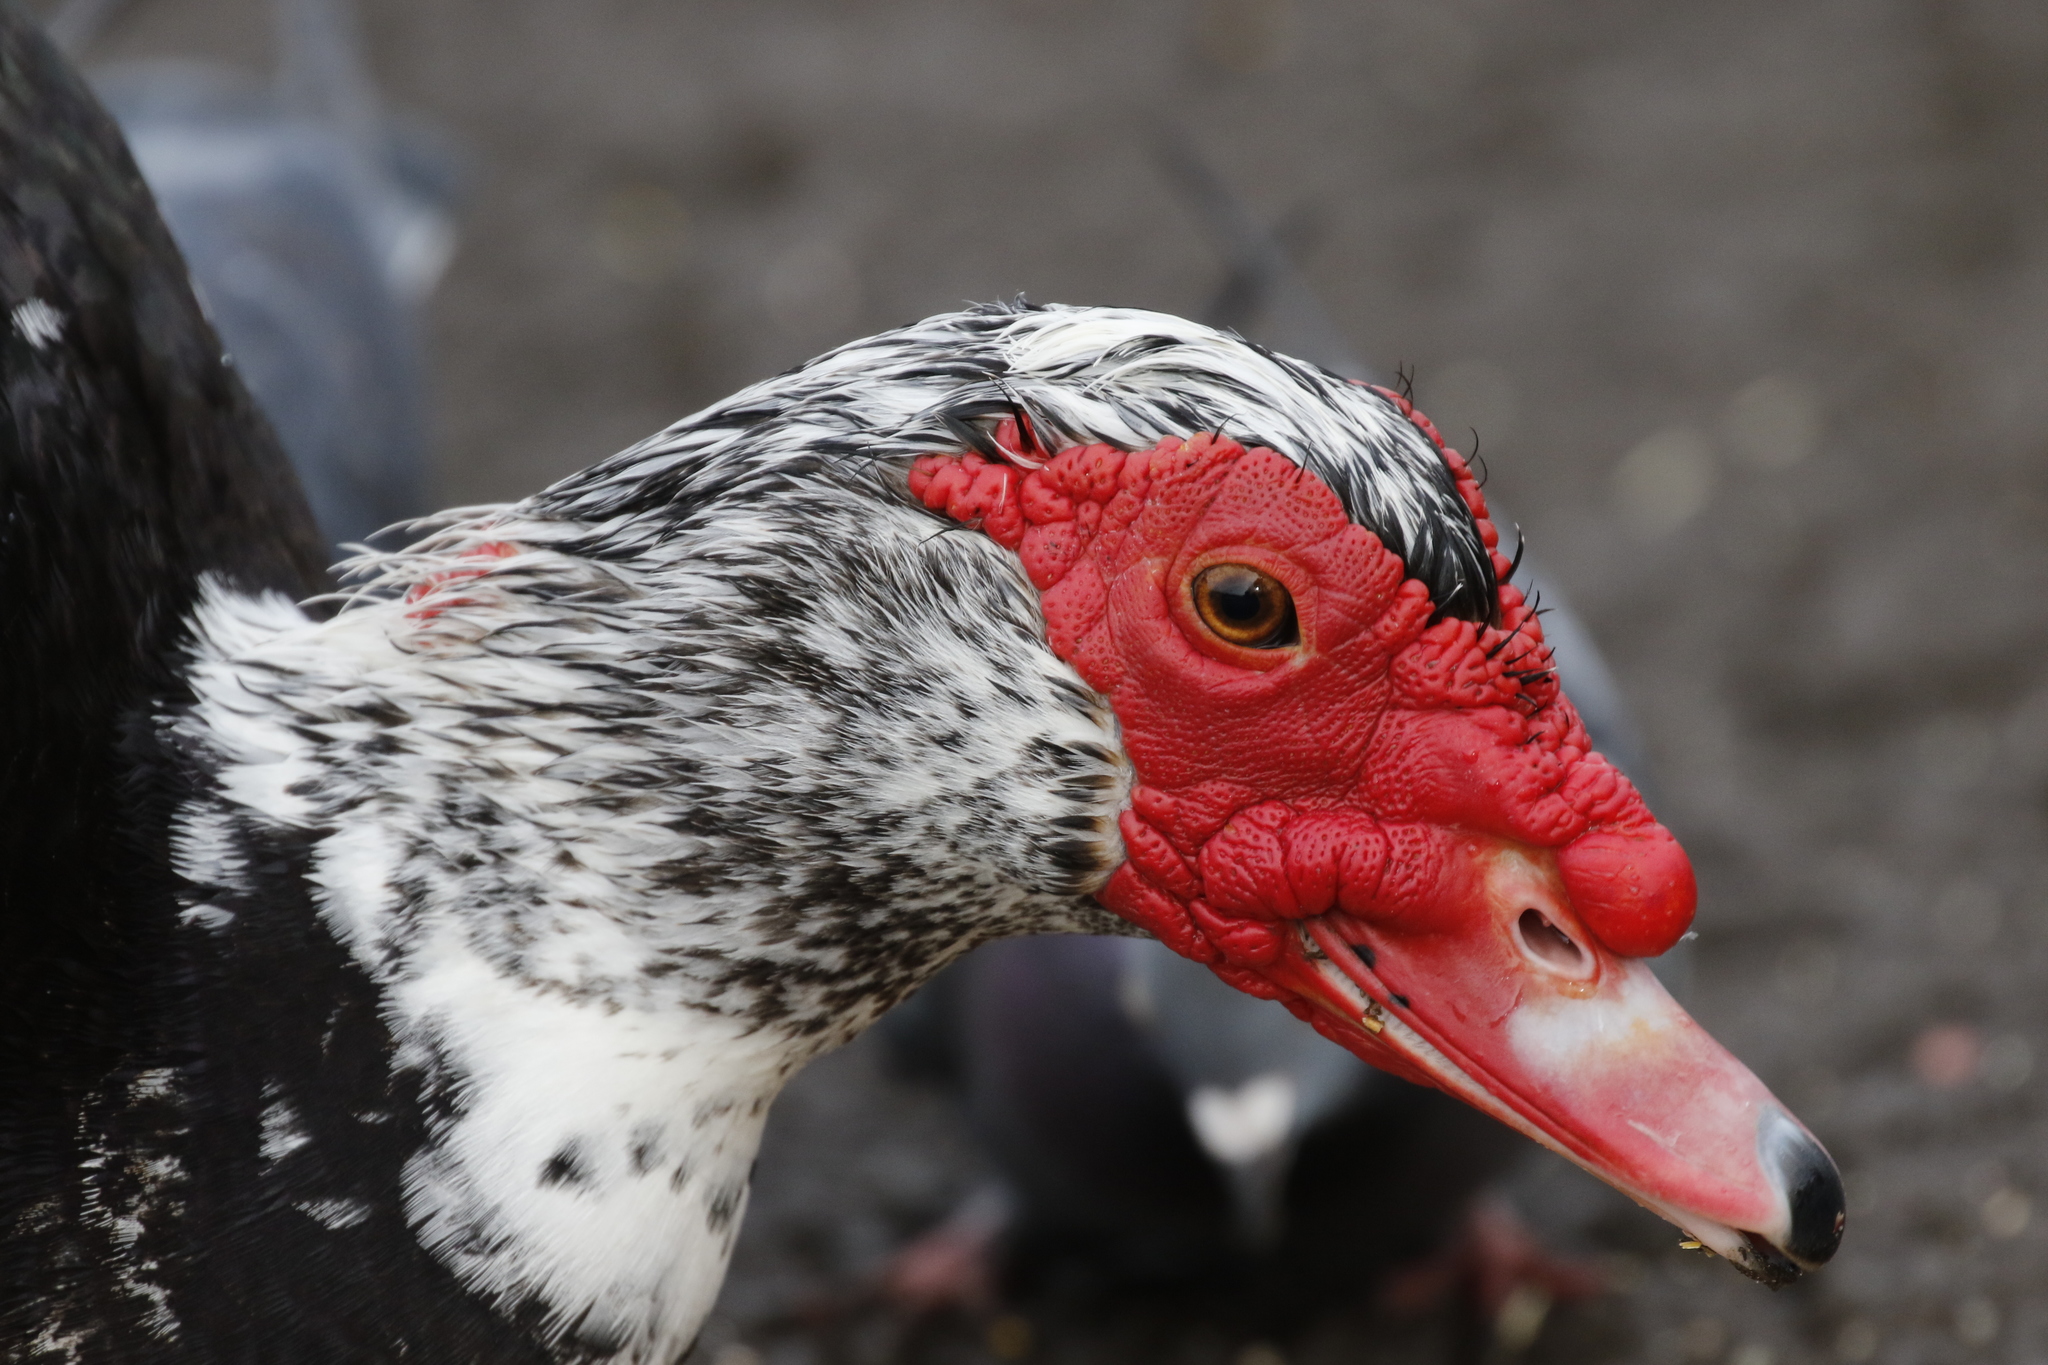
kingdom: Animalia
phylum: Chordata
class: Aves
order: Anseriformes
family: Anatidae
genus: Cairina
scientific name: Cairina moschata
